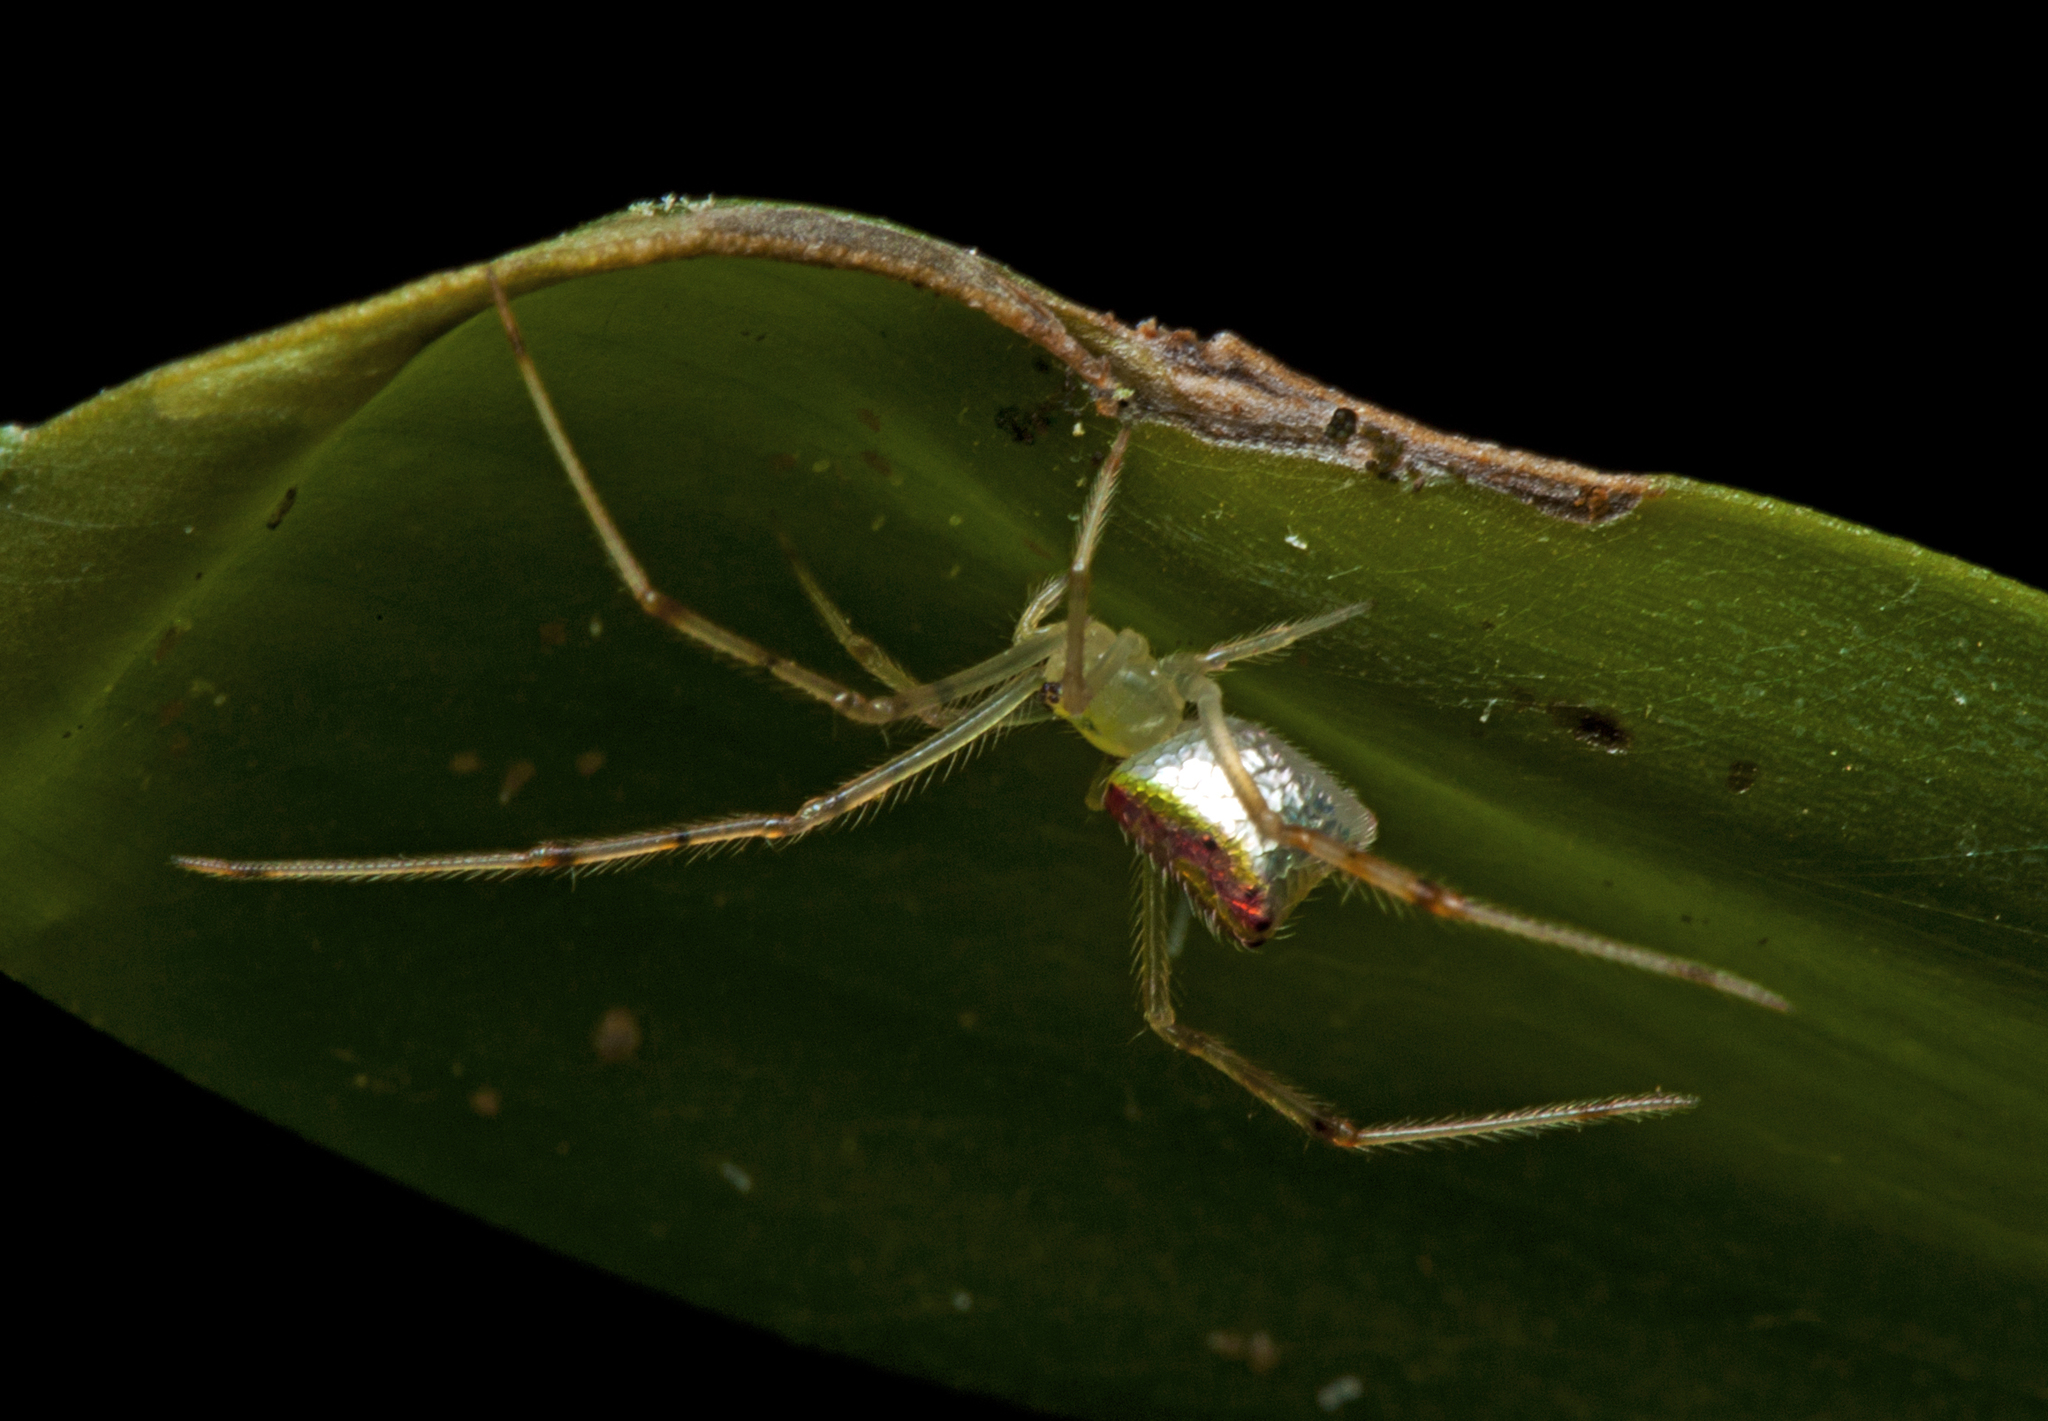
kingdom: Animalia
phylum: Arthropoda
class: Arachnida
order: Araneae
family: Theridiidae
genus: Thwaitesia
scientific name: Thwaitesia nigronodosa
